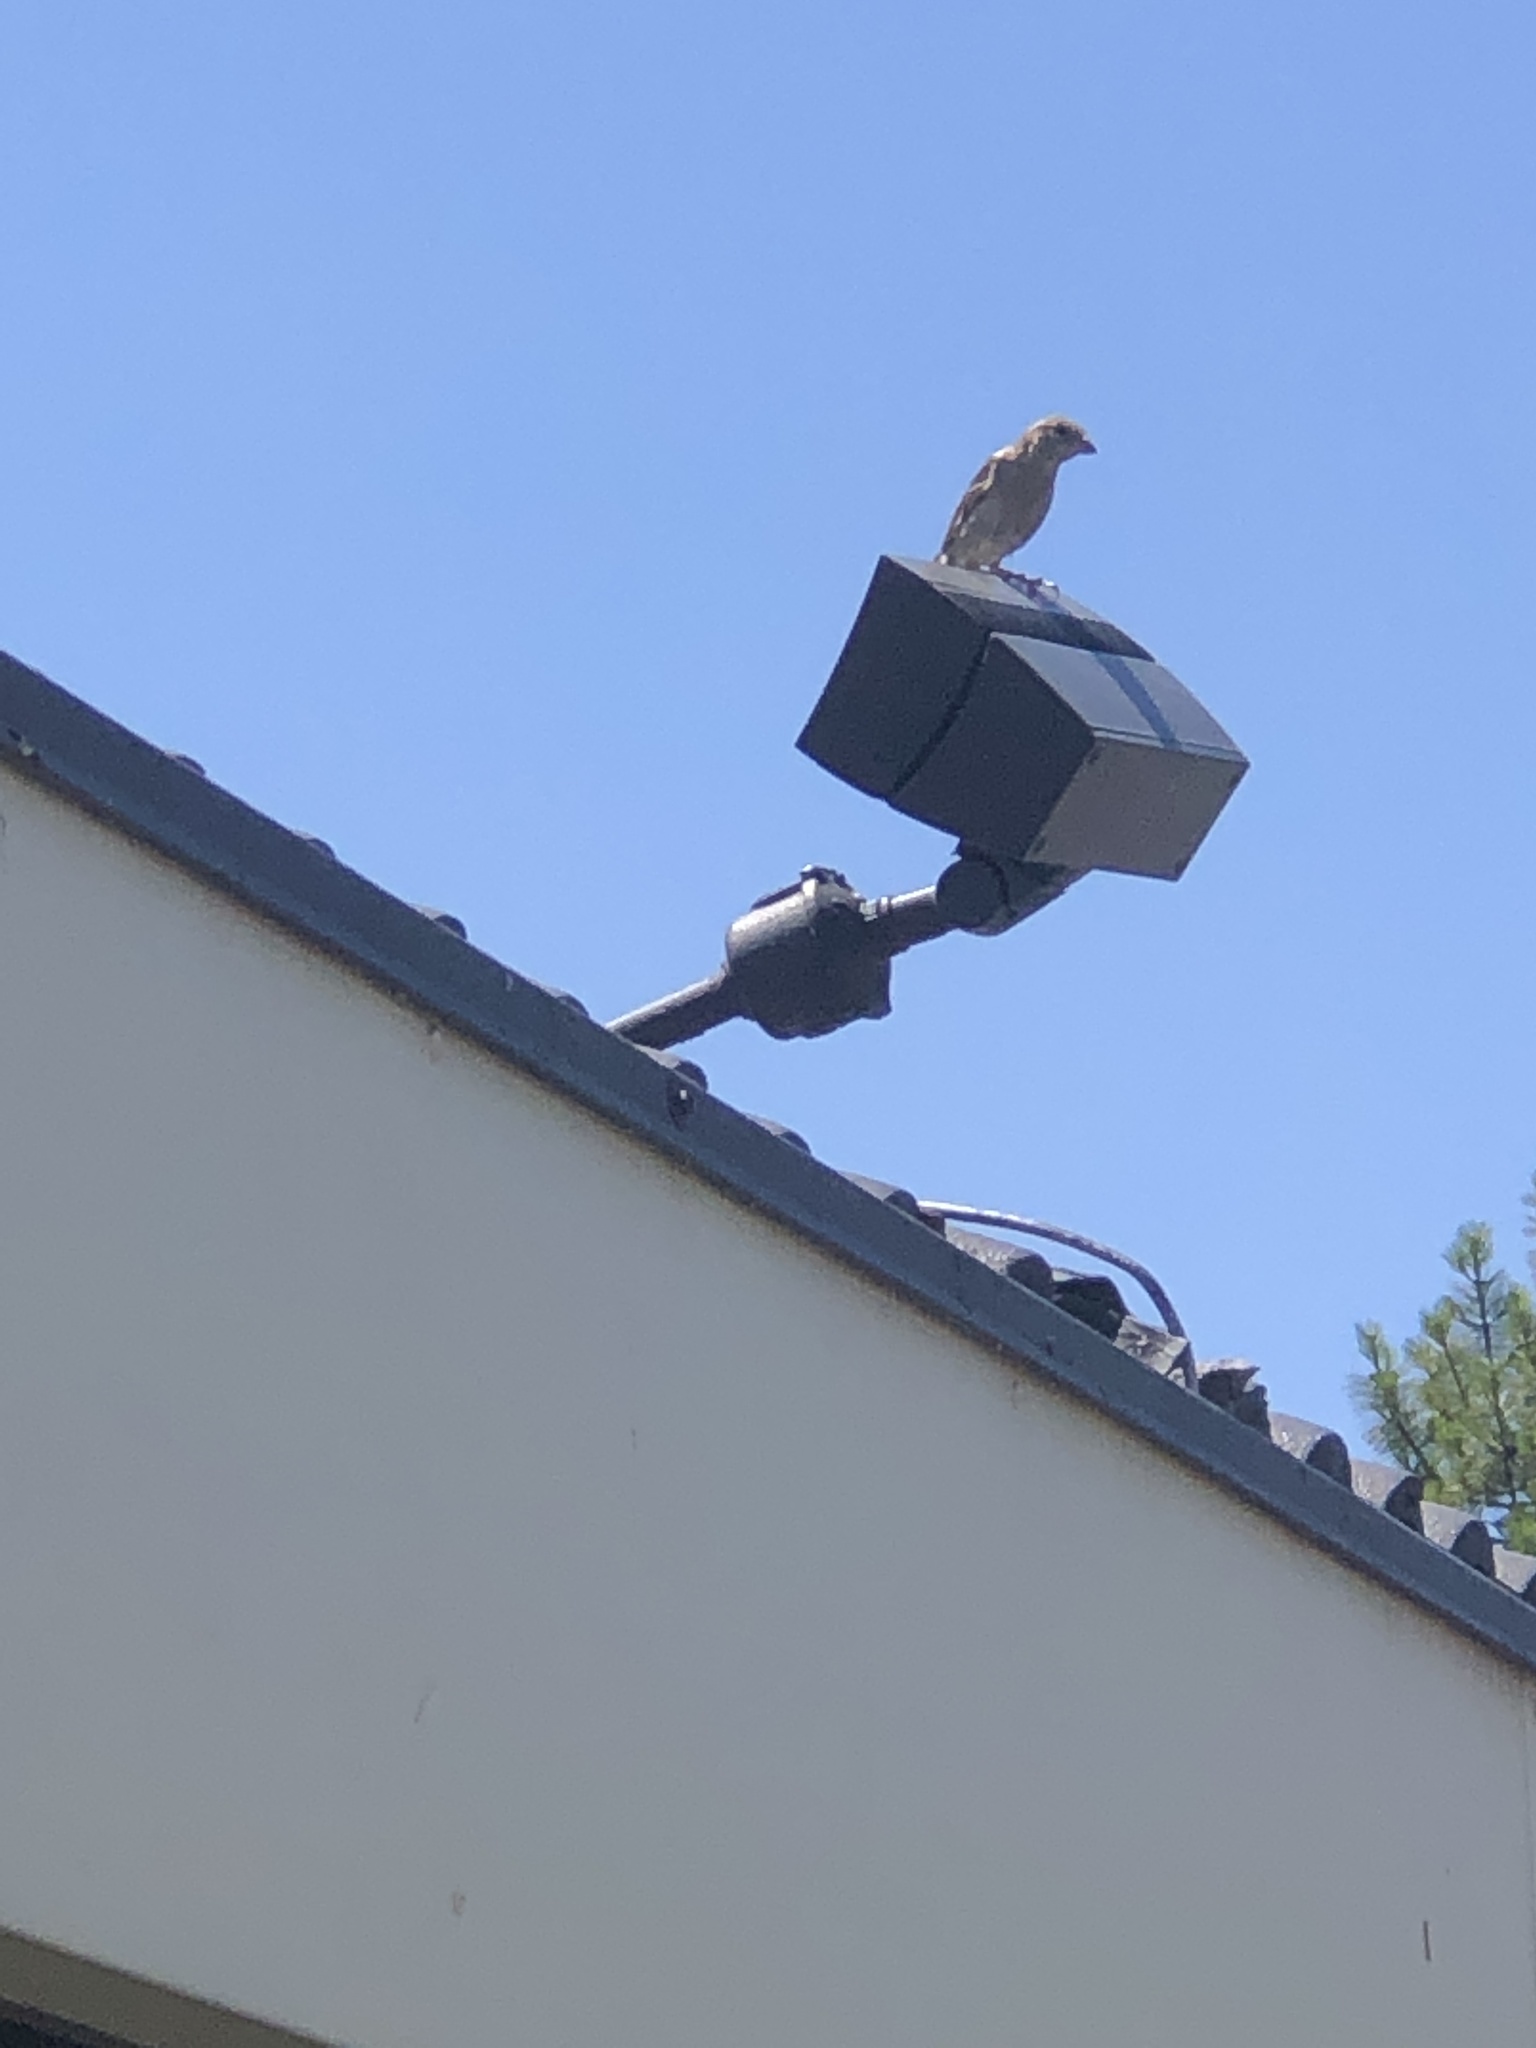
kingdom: Animalia
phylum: Chordata
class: Aves
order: Passeriformes
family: Passeridae
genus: Passer
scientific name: Passer domesticus
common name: House sparrow
